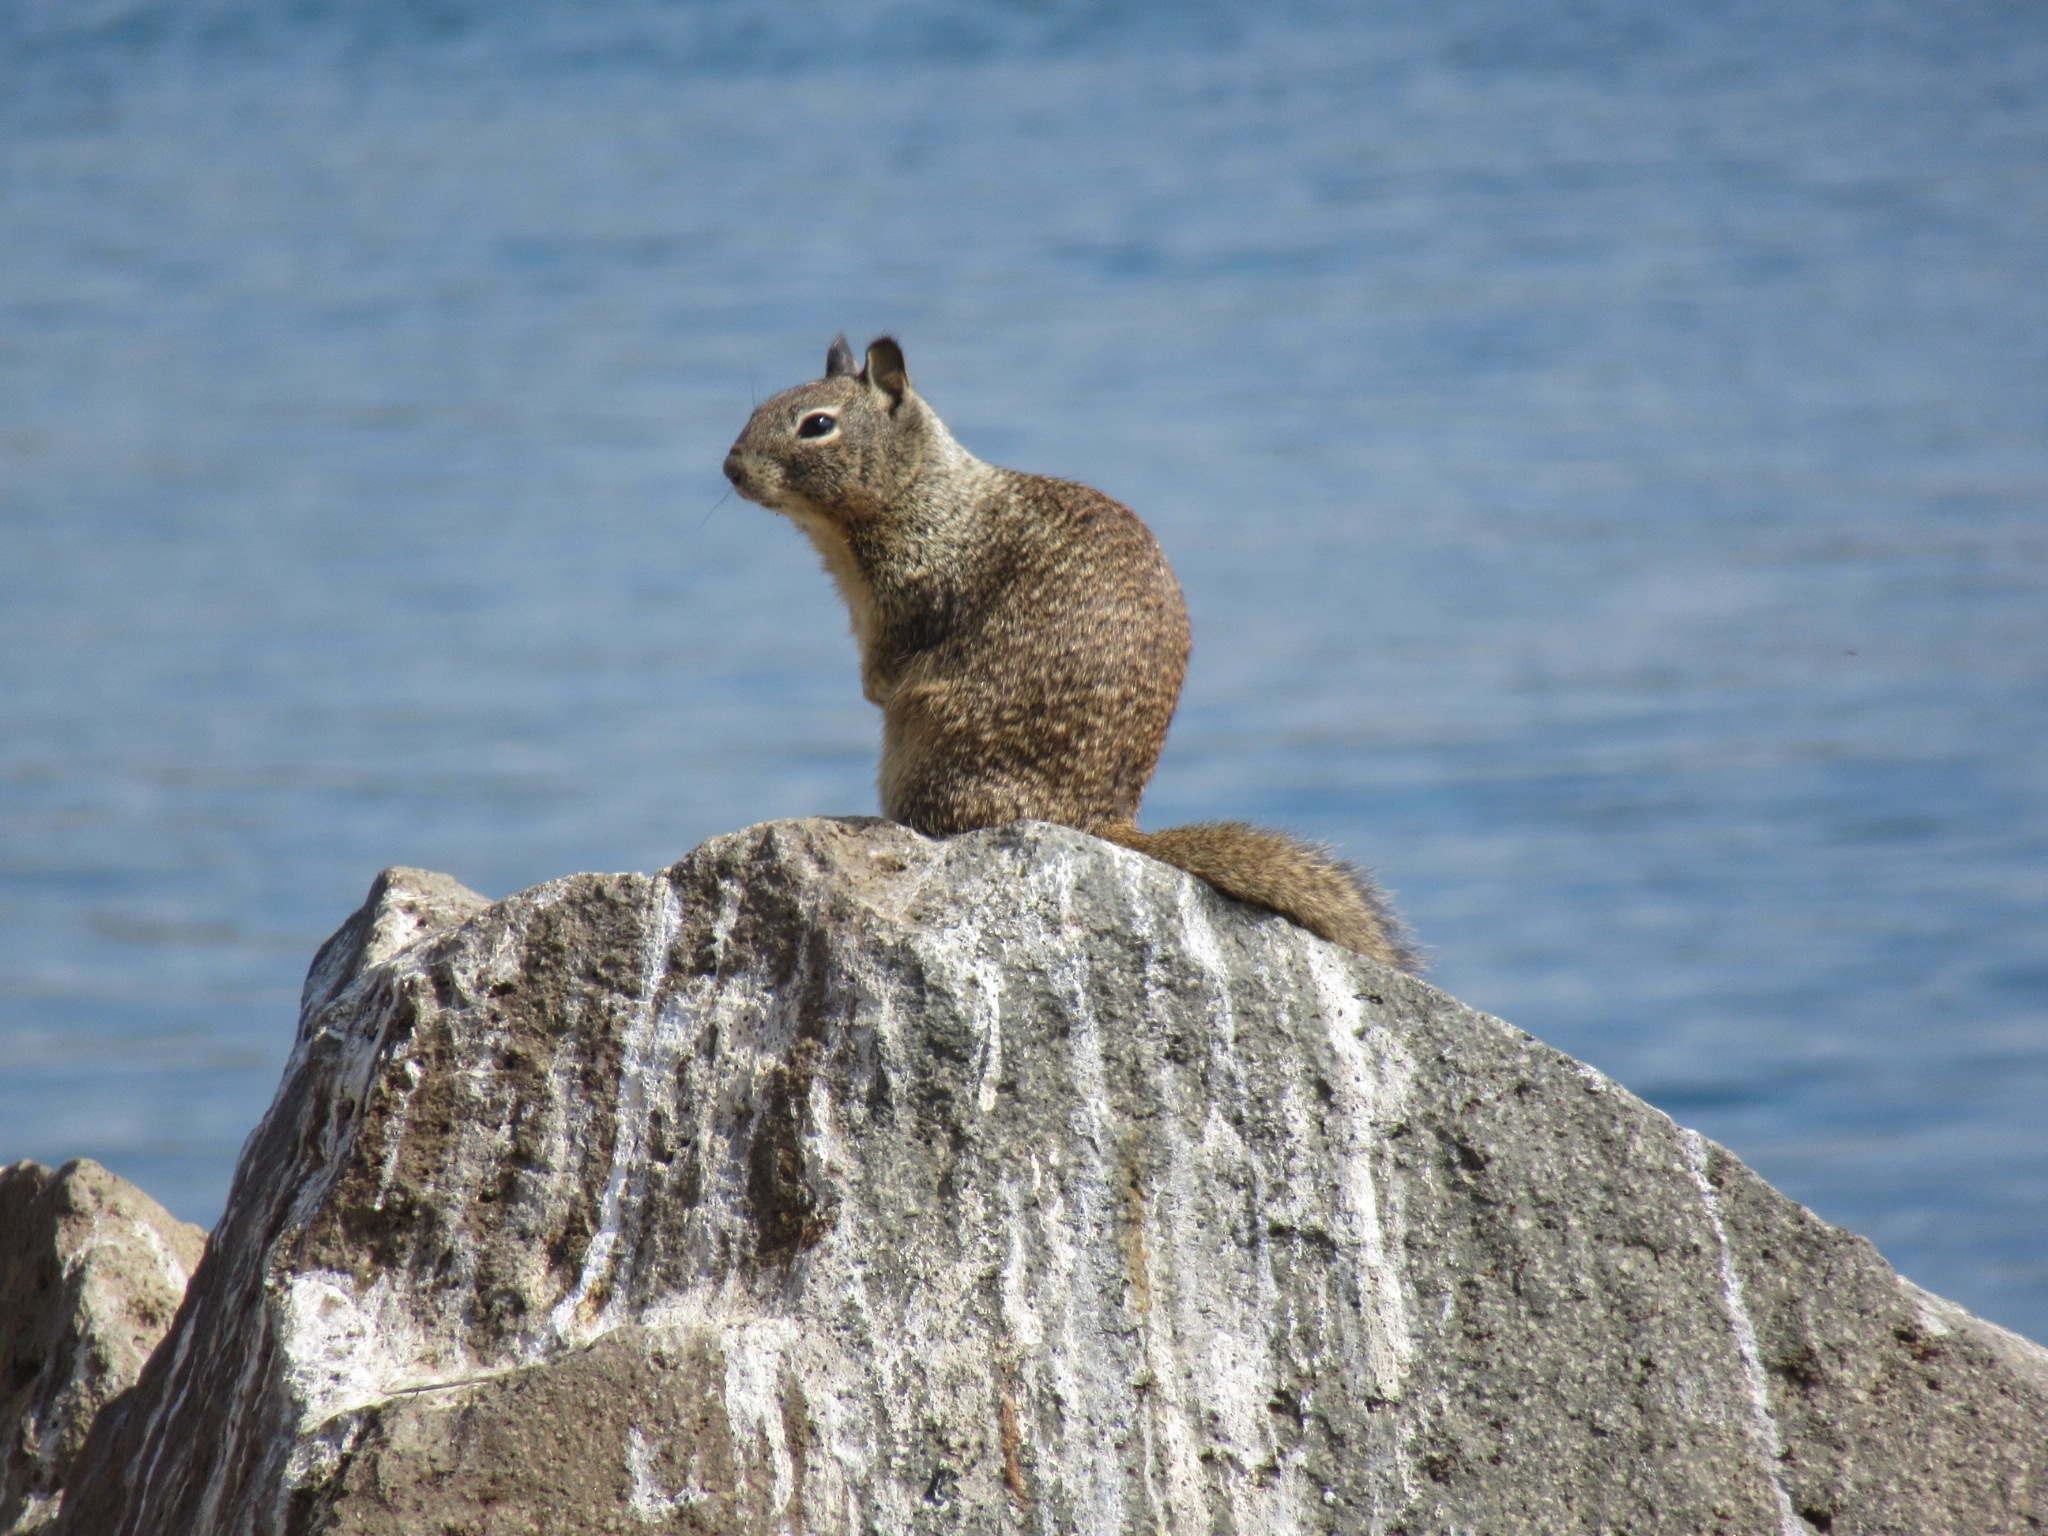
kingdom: Animalia
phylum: Chordata
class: Mammalia
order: Rodentia
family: Sciuridae
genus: Otospermophilus
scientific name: Otospermophilus beecheyi
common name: California ground squirrel
